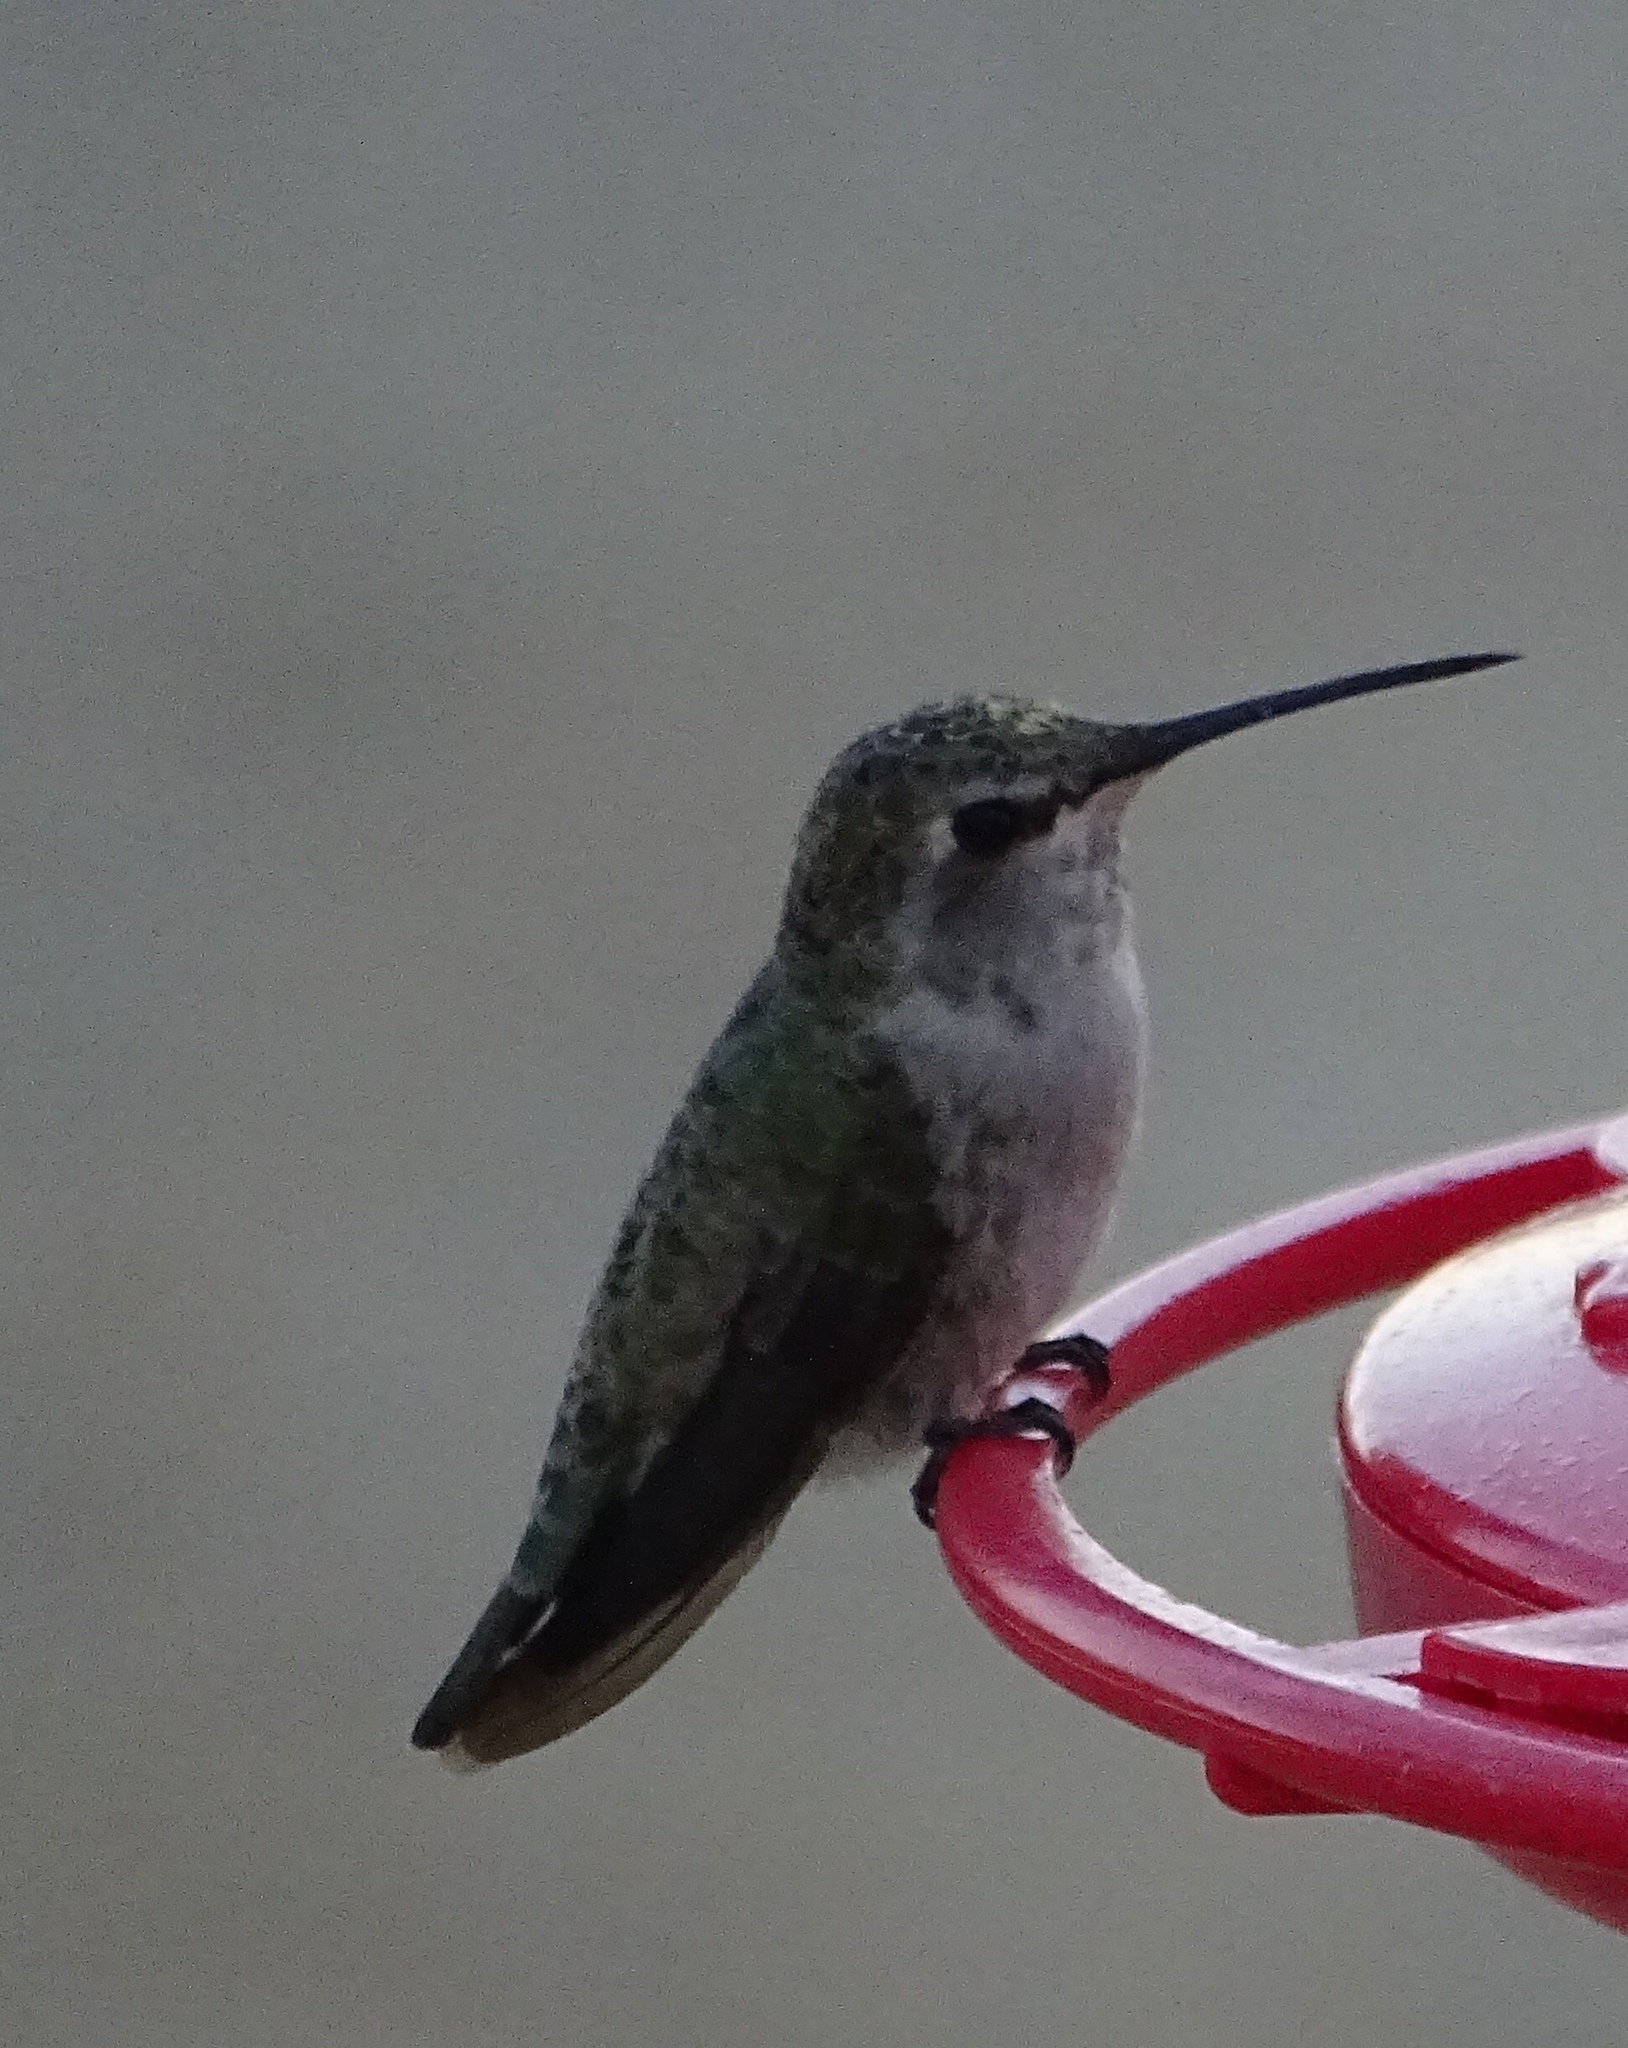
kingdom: Animalia
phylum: Chordata
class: Aves
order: Apodiformes
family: Trochilidae
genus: Calypte
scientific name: Calypte costae
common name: Costa's hummingbird
